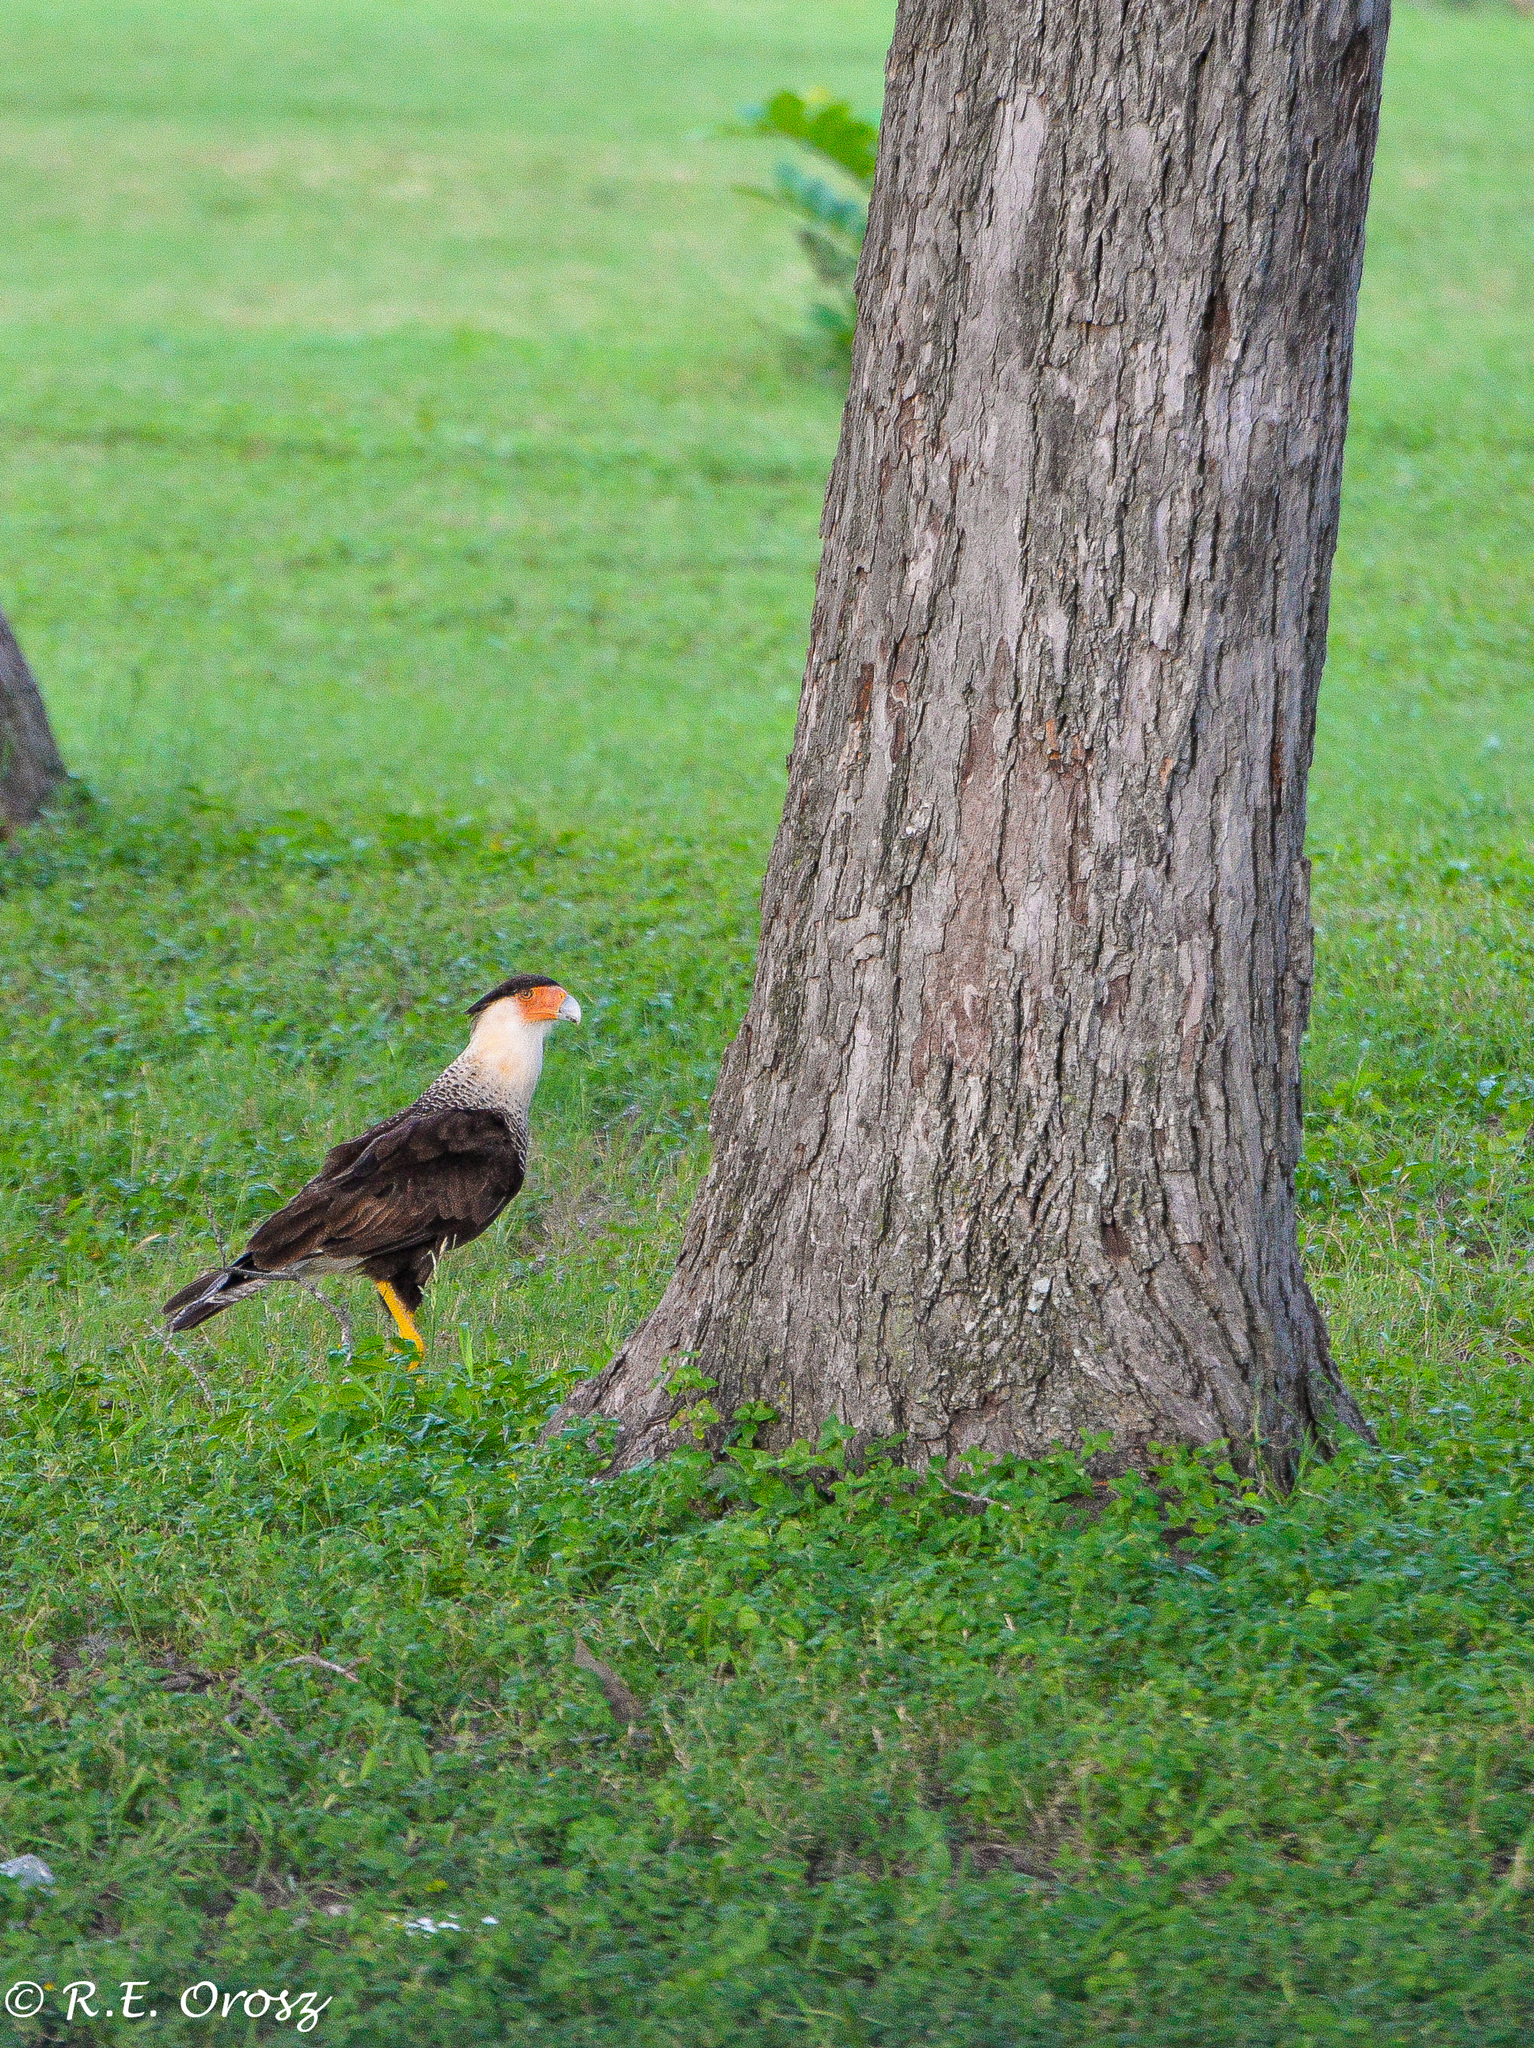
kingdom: Animalia
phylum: Chordata
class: Aves
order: Falconiformes
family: Falconidae
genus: Caracara
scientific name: Caracara plancus
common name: Southern caracara
